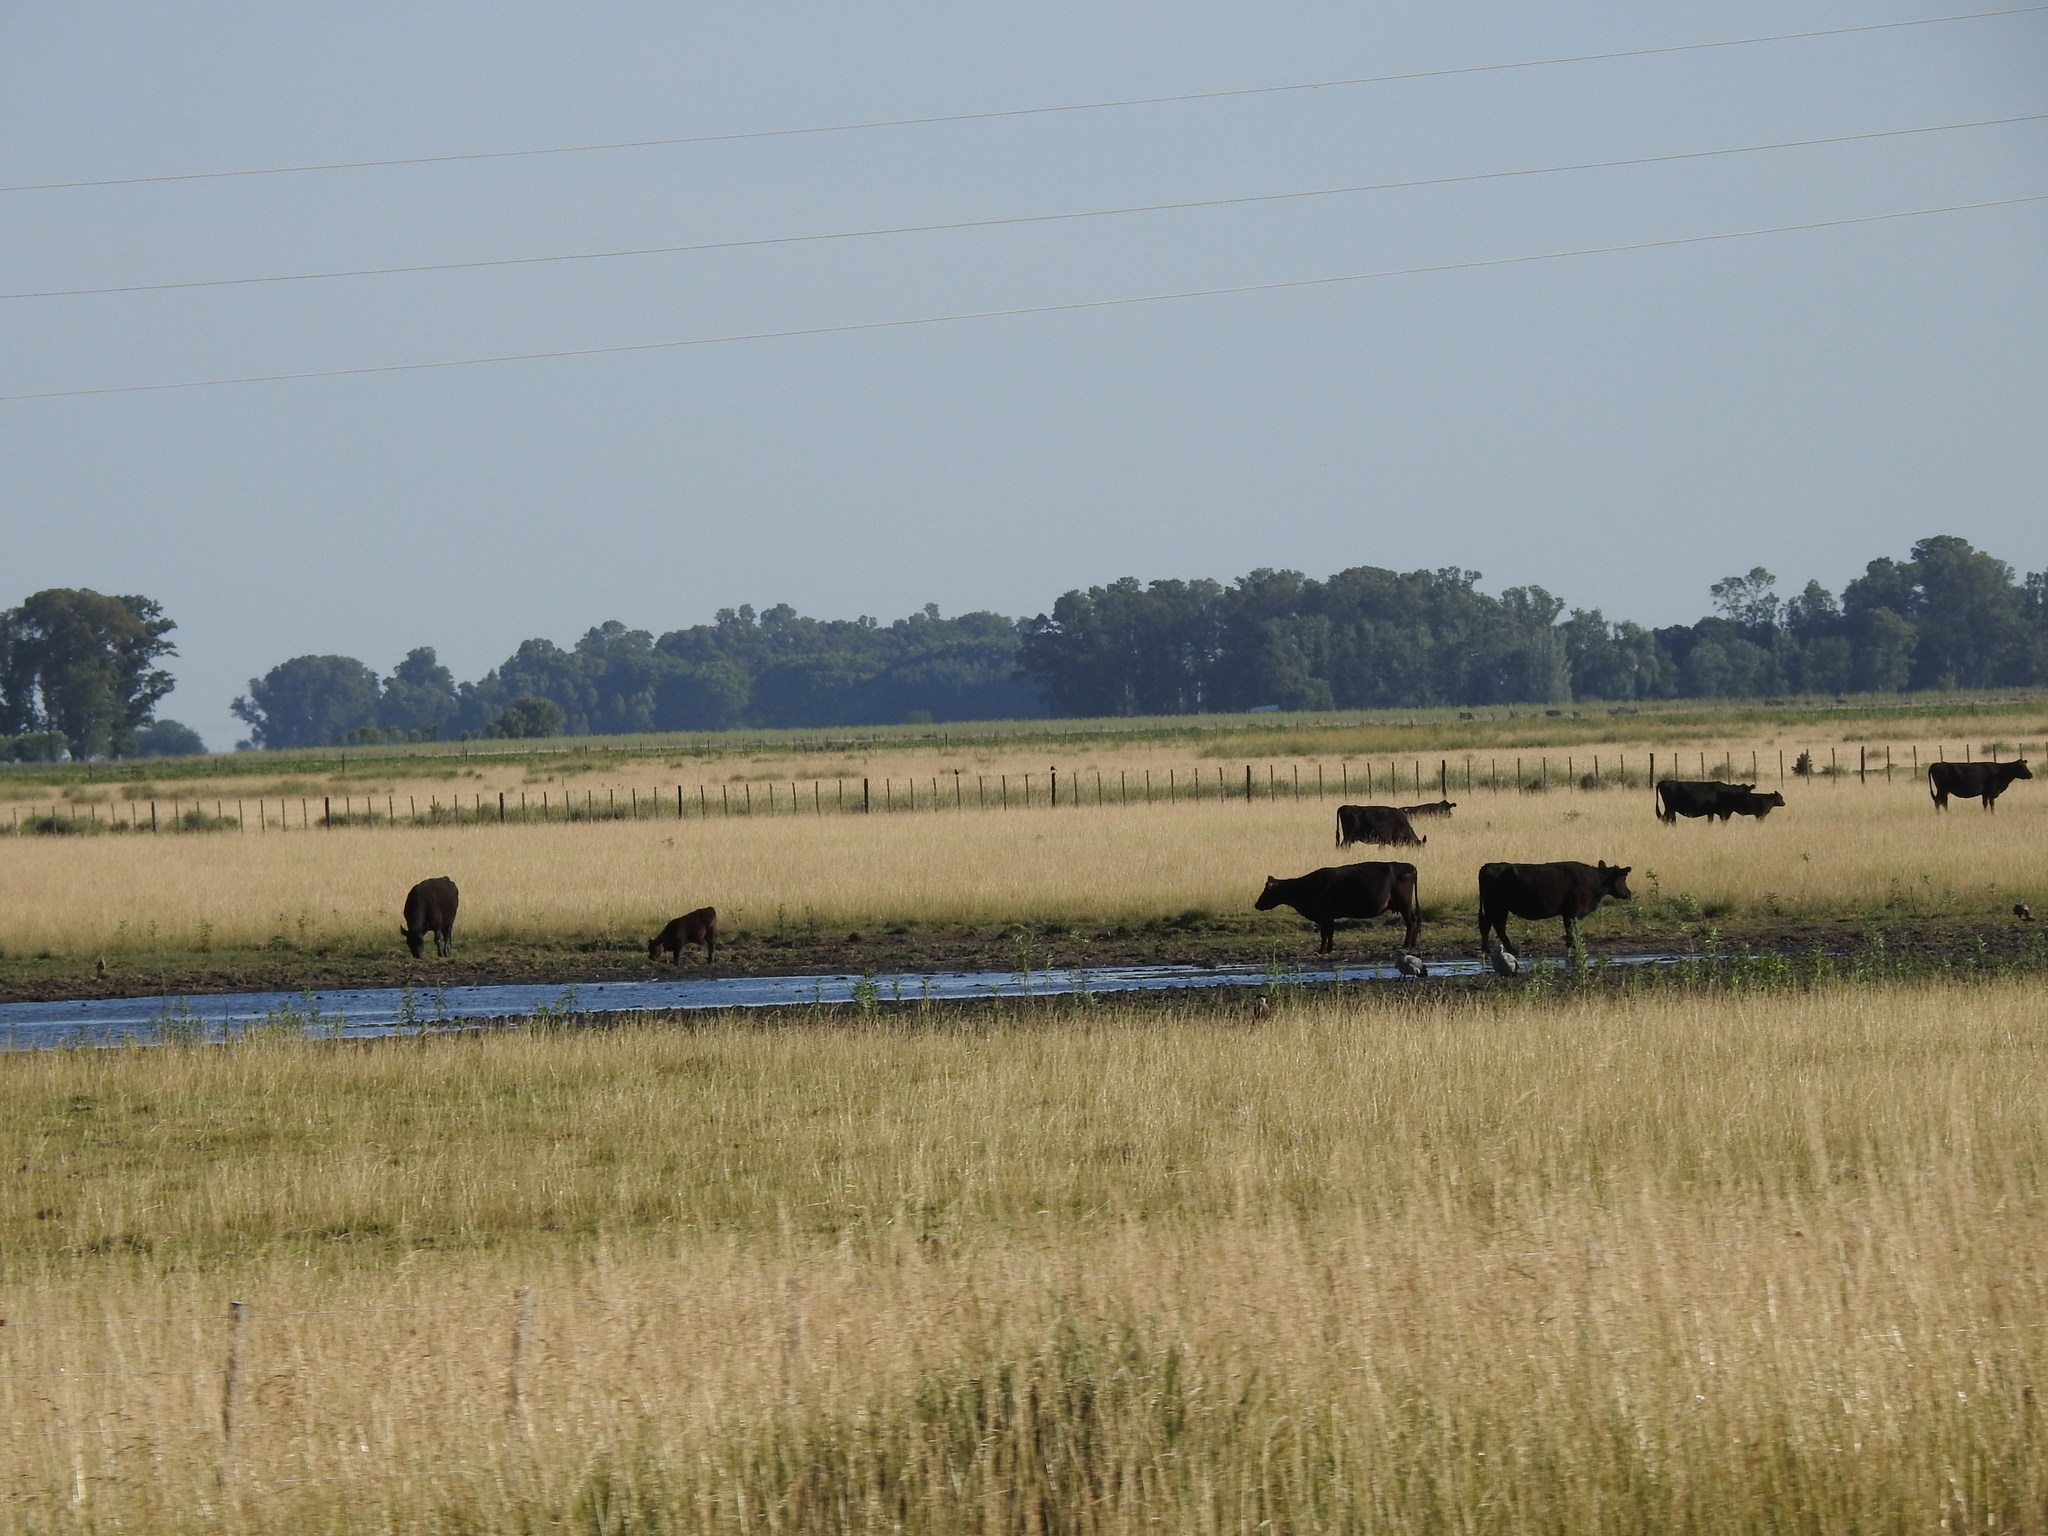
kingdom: Animalia
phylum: Chordata
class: Aves
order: Anseriformes
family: Anhimidae
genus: Chauna
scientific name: Chauna torquata
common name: Southern screamer
